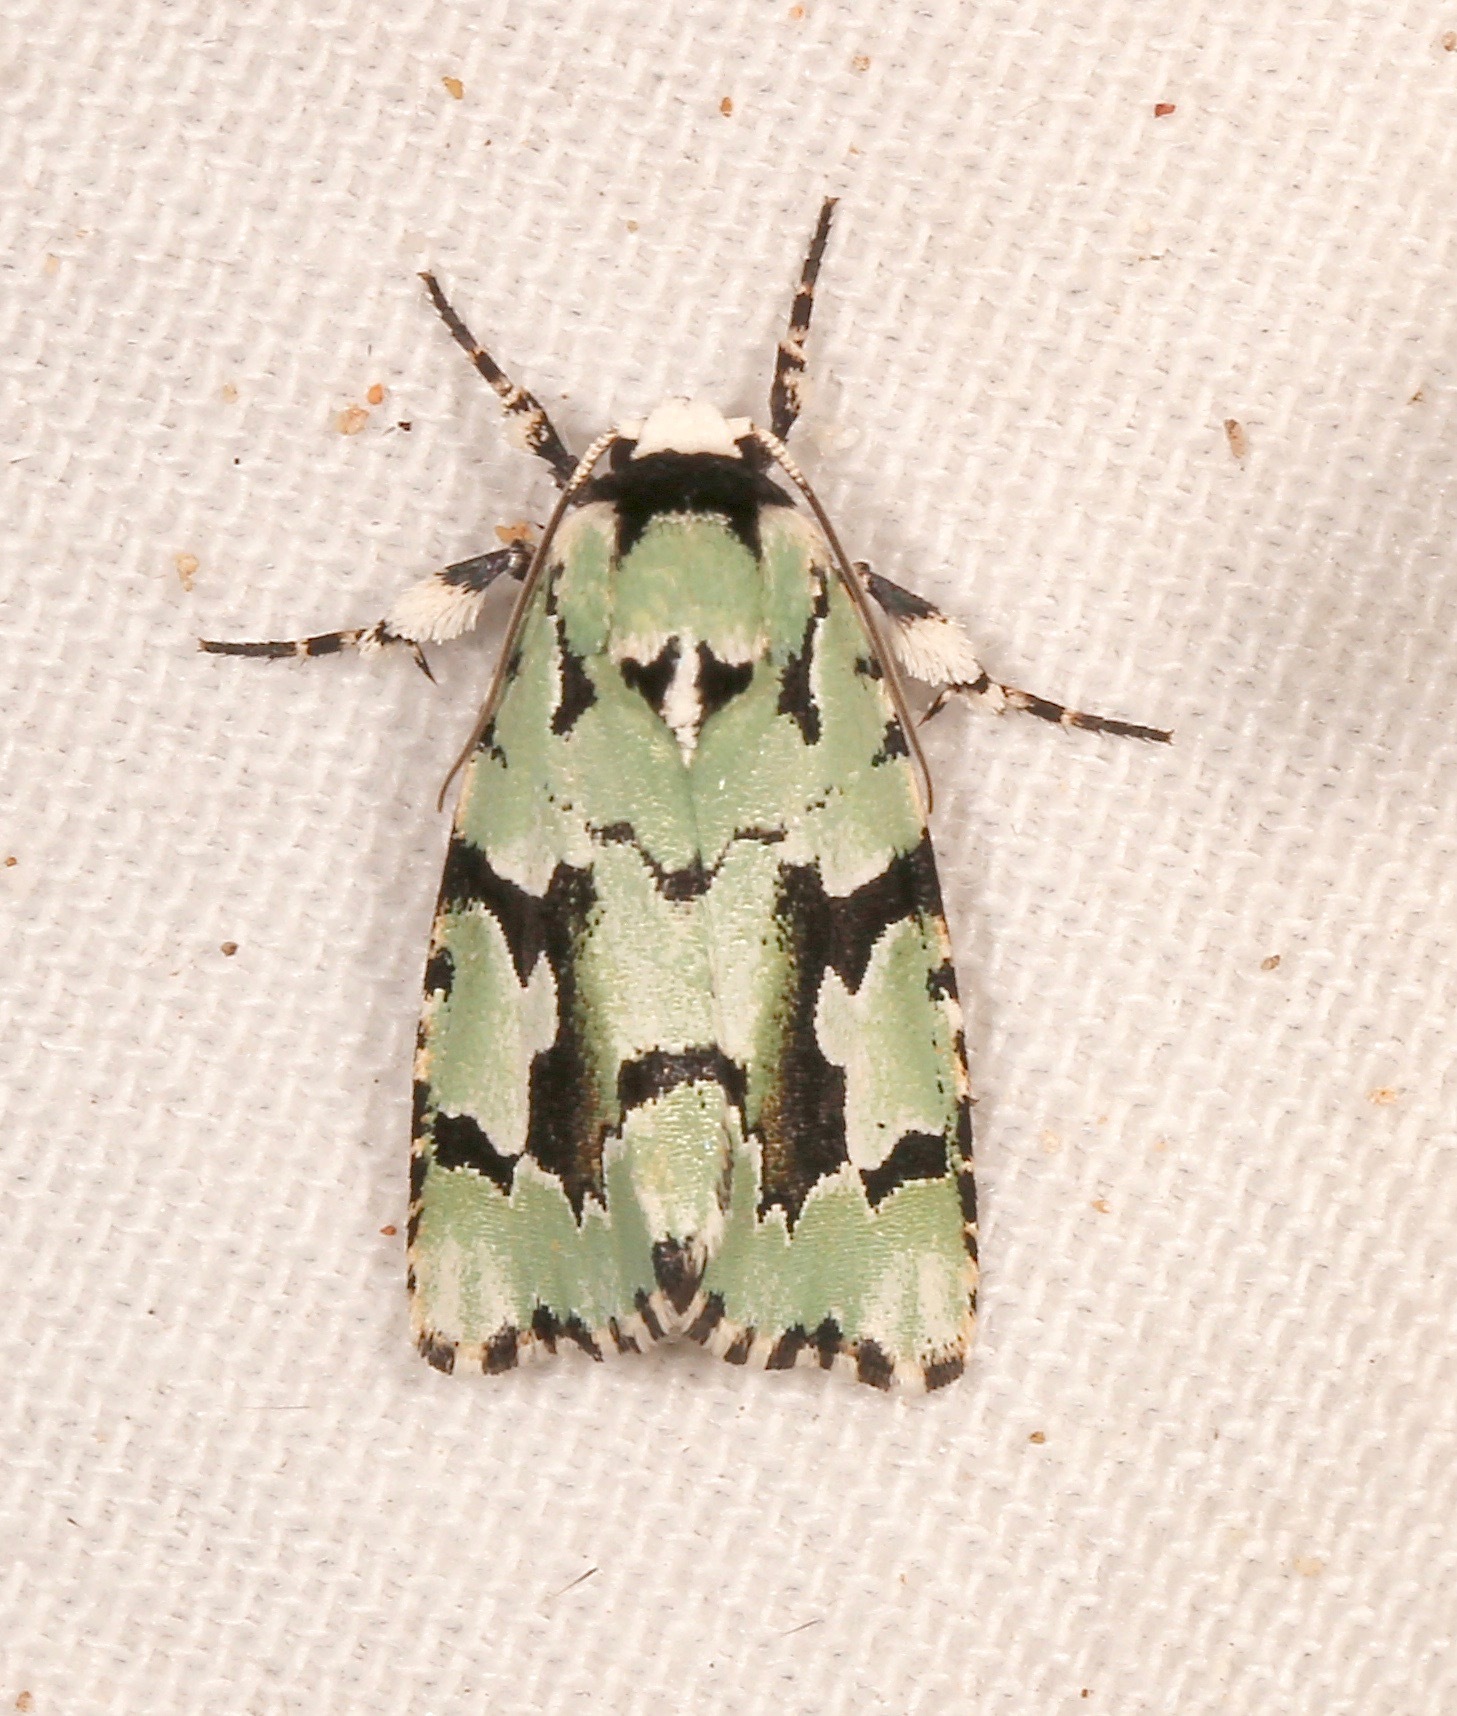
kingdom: Animalia
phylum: Arthropoda
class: Insecta
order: Lepidoptera
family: Noctuidae
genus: Emarginea
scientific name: Emarginea dulcinea
